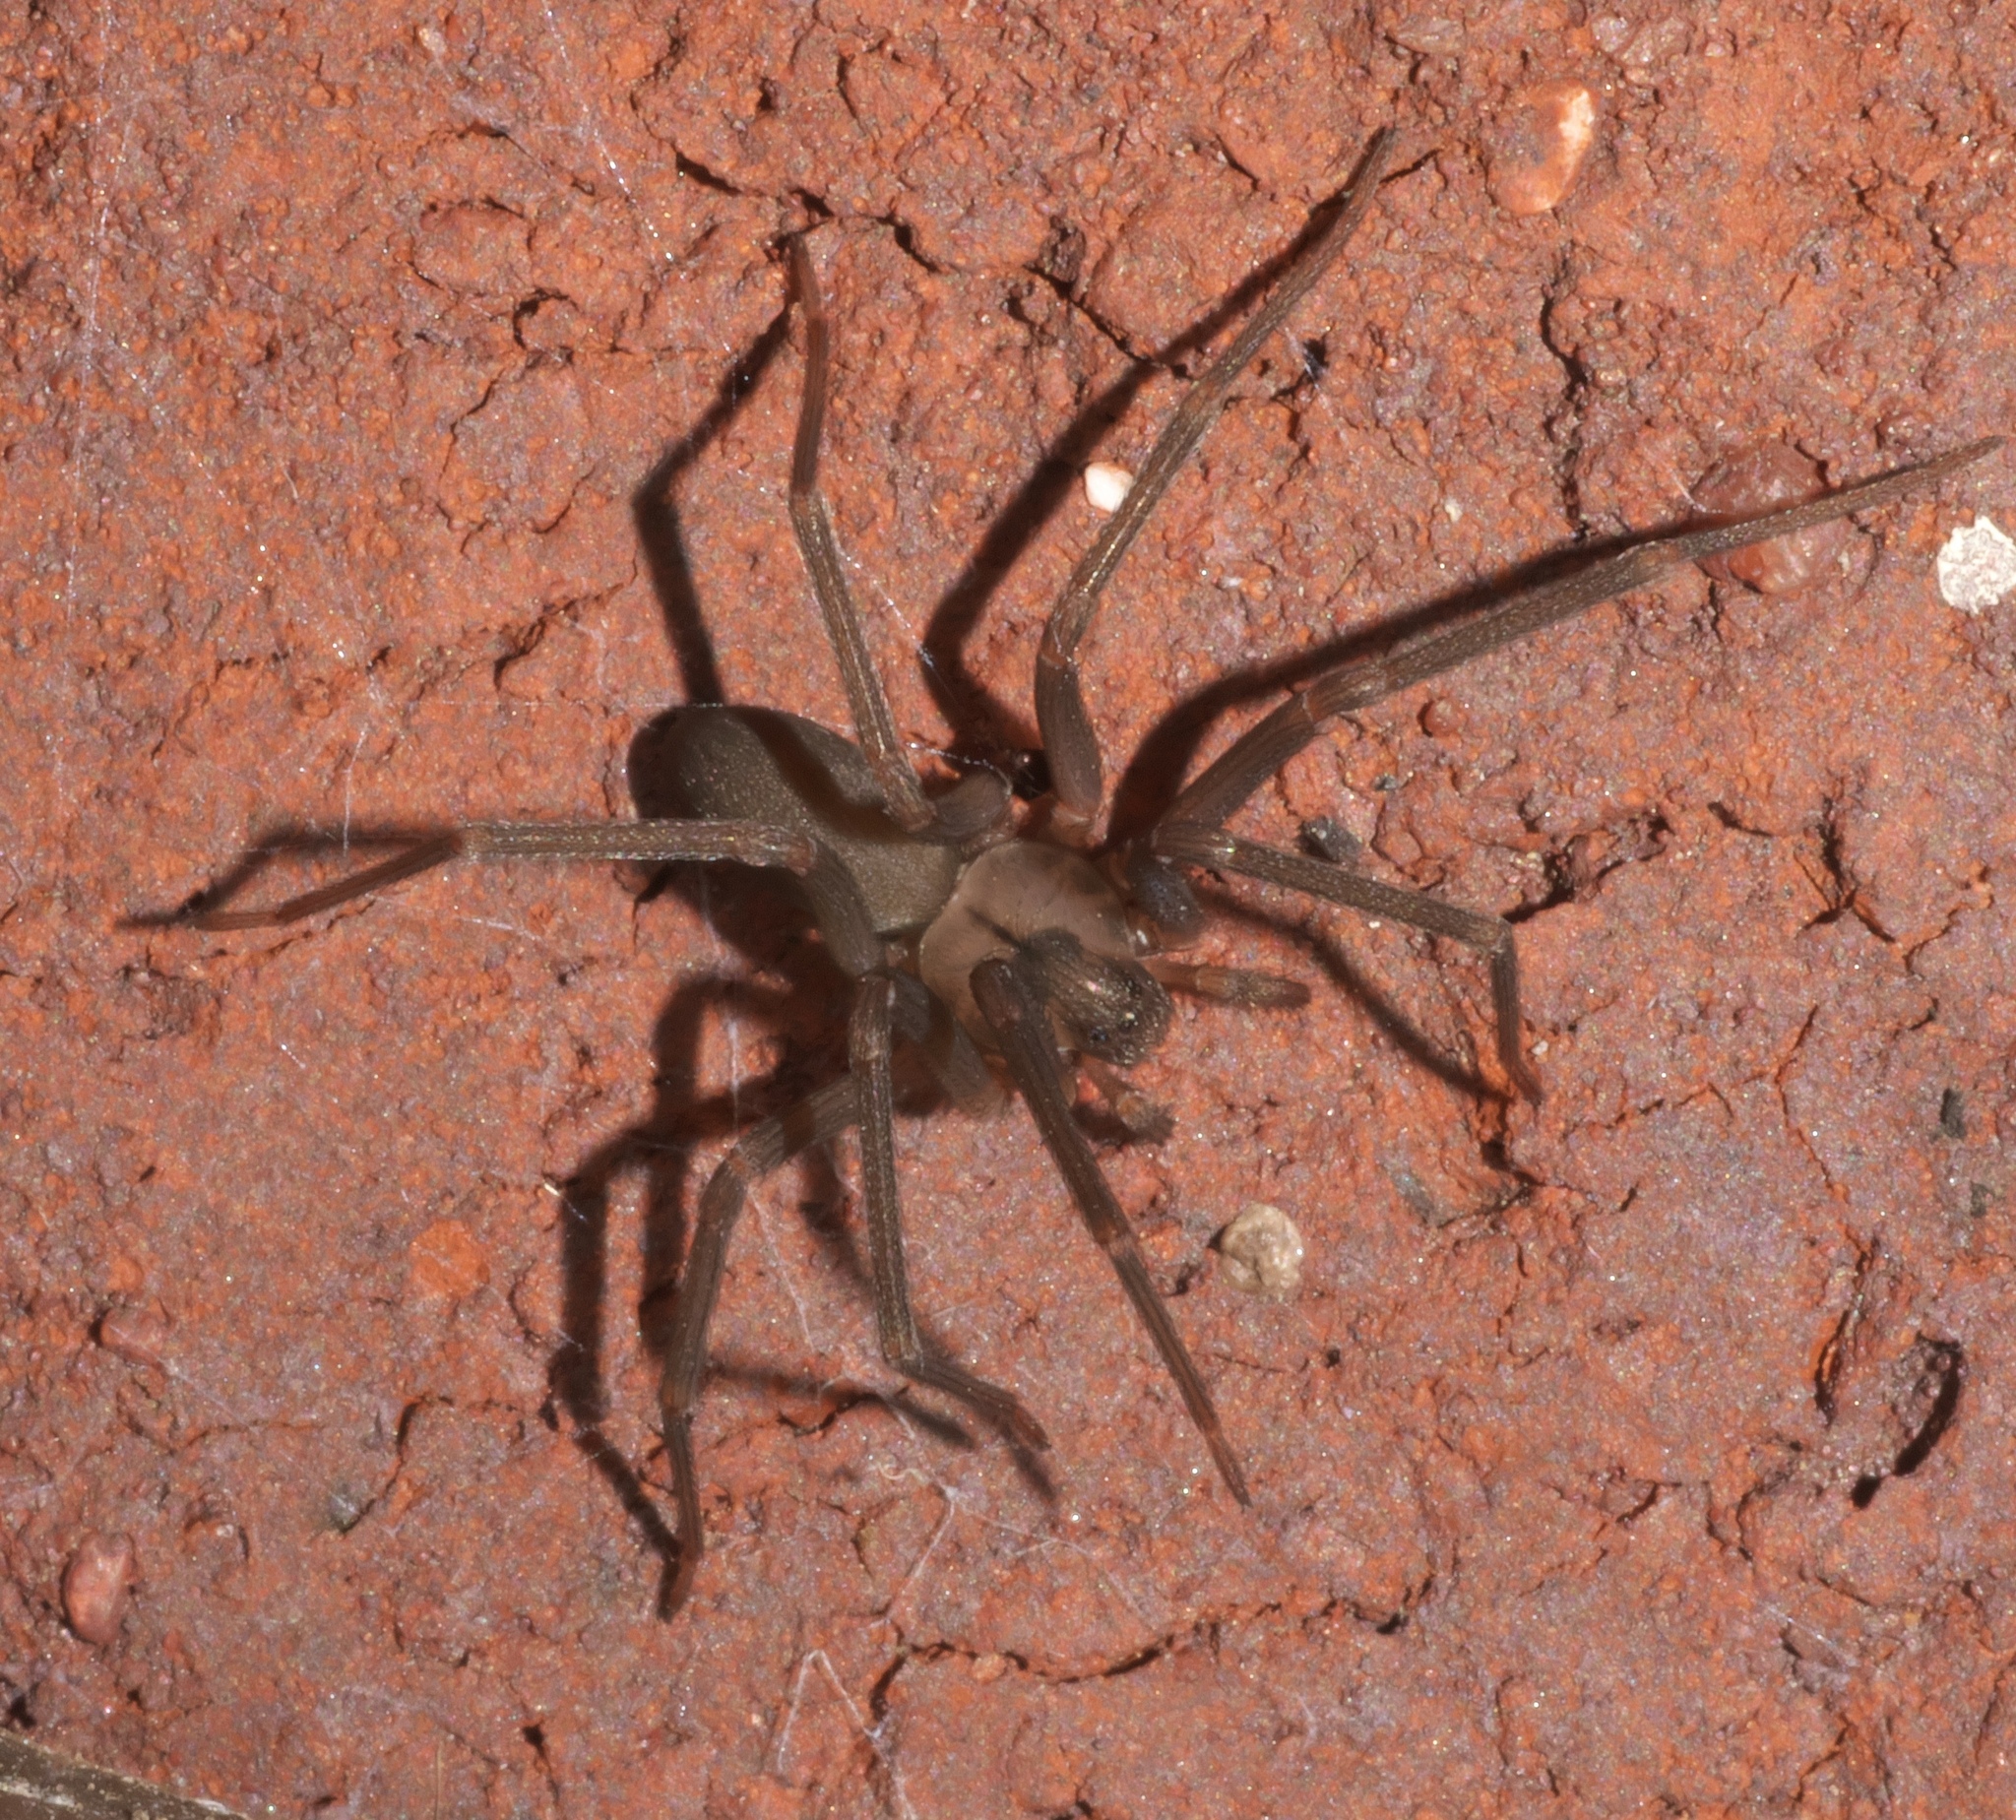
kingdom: Animalia
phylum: Arthropoda
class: Arachnida
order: Araneae
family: Sicariidae
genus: Loxosceles
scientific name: Loxosceles reclusa
